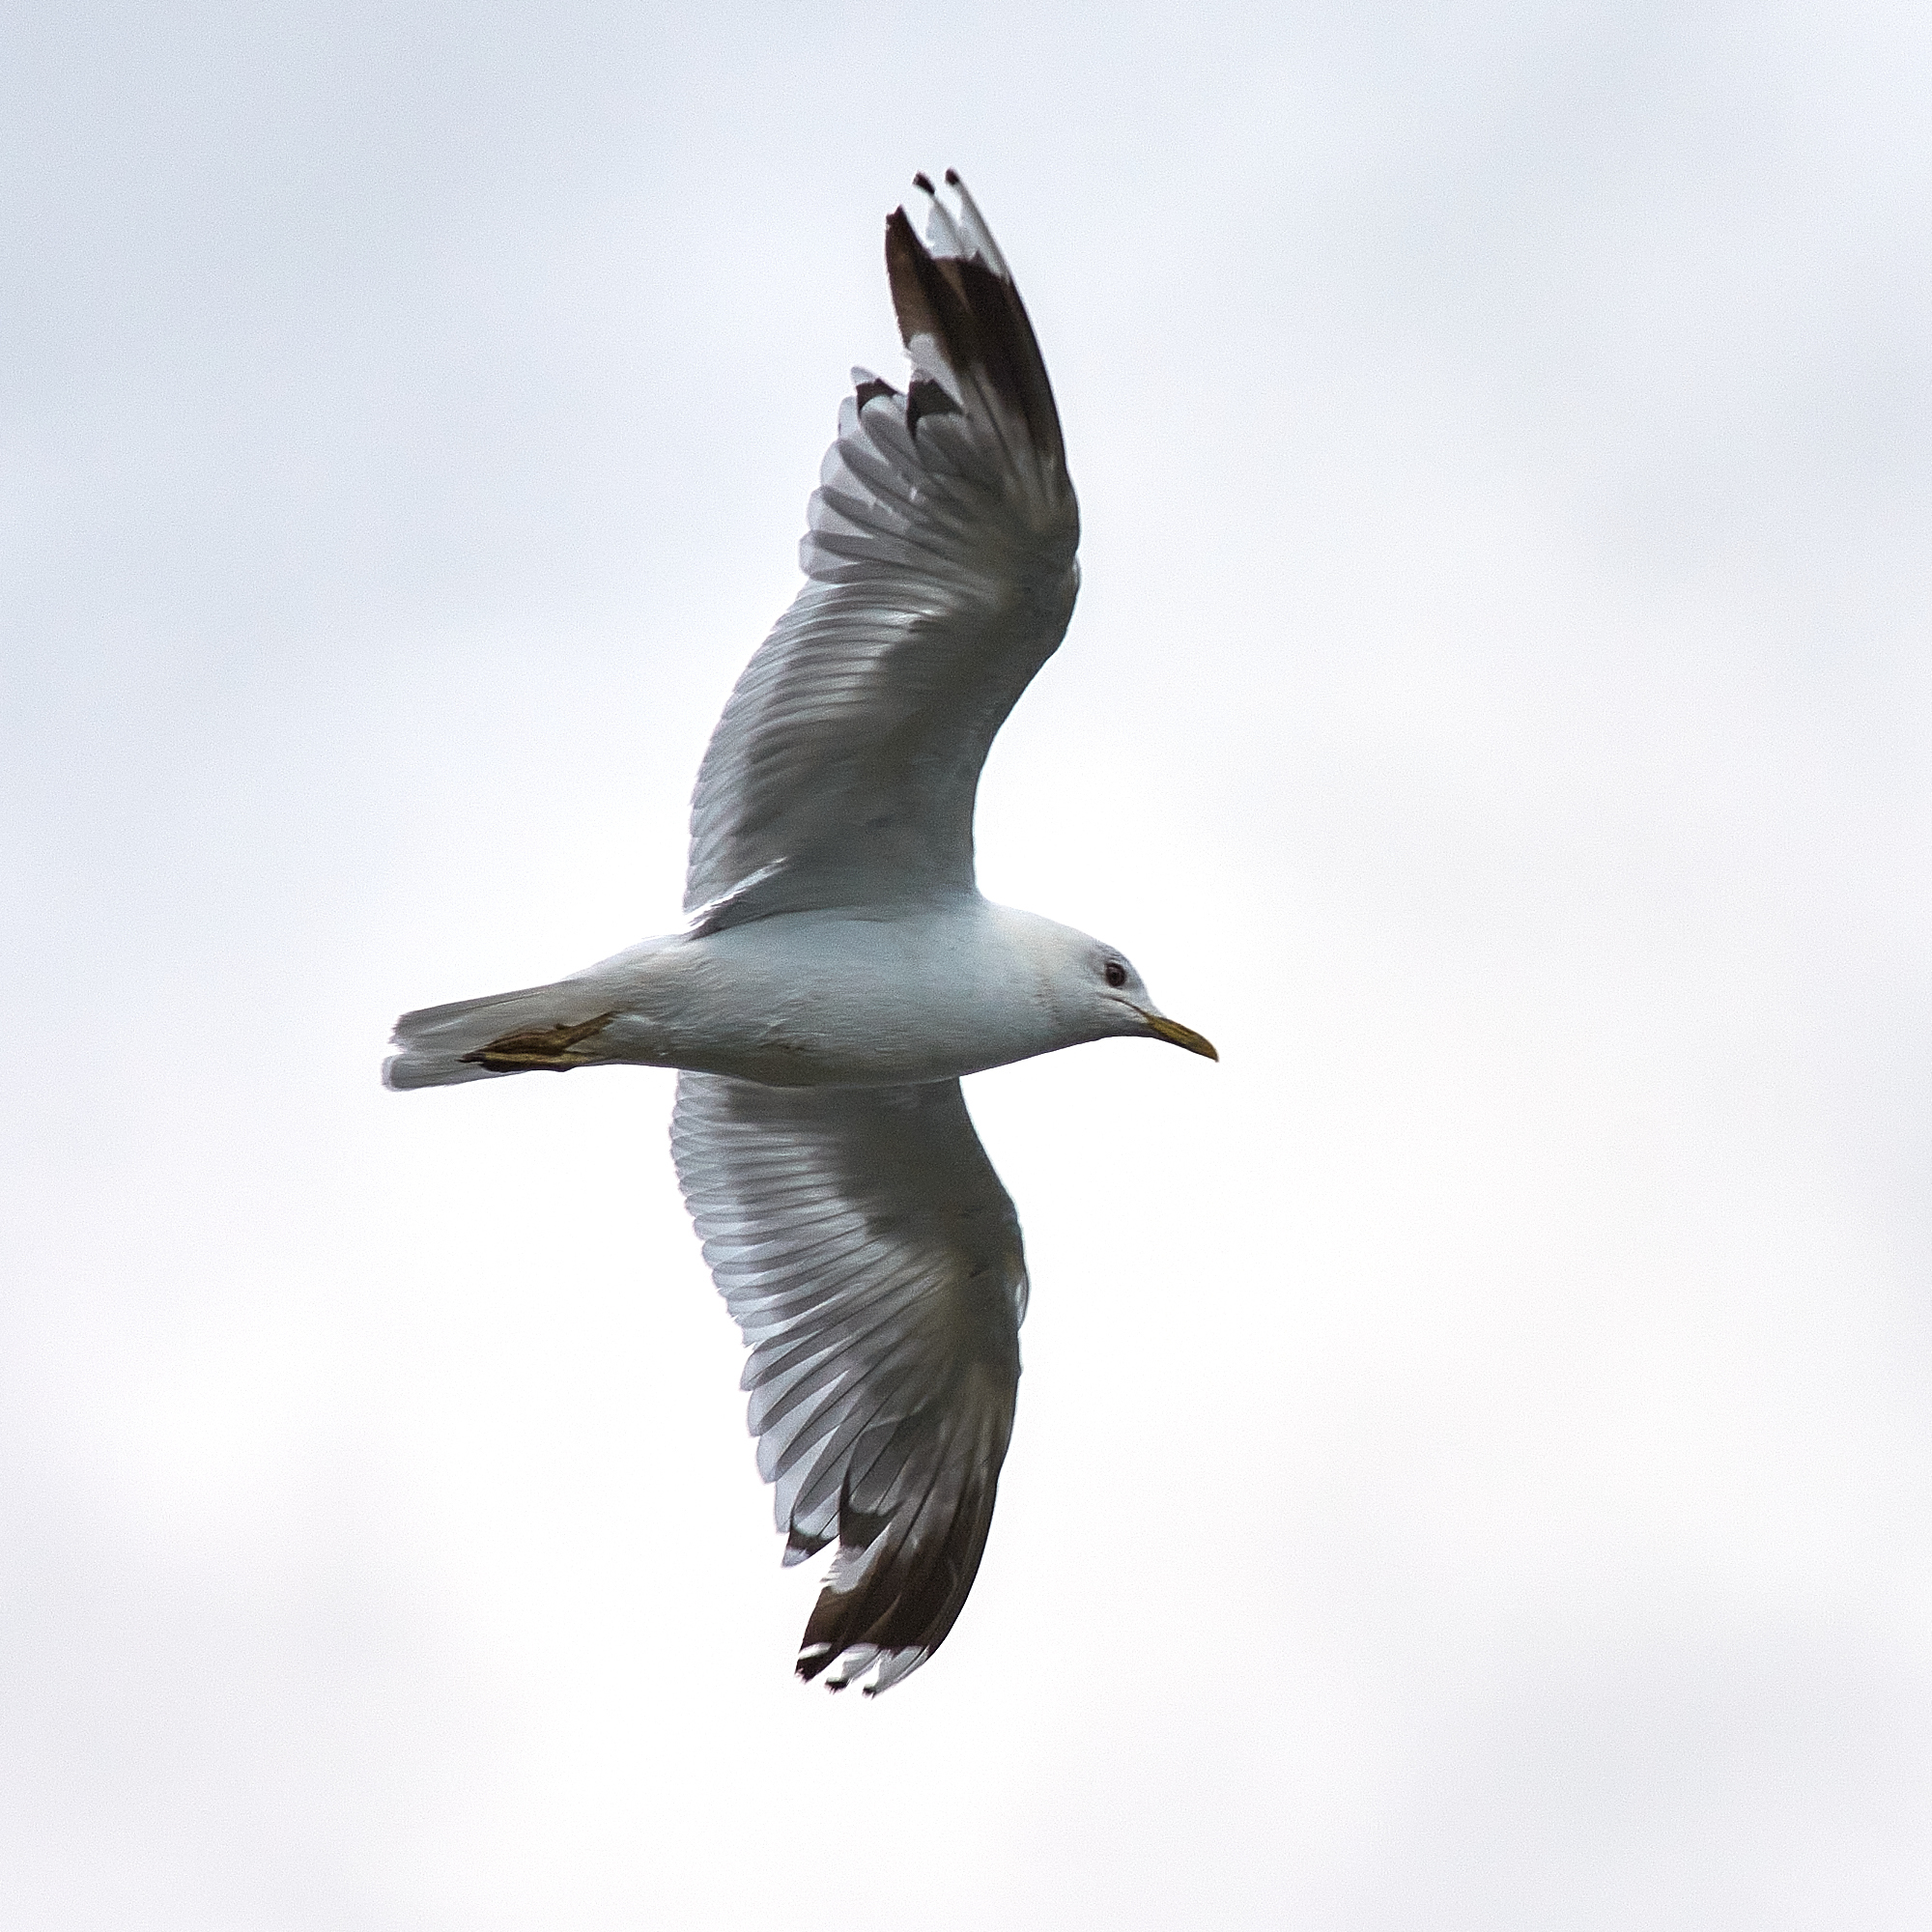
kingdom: Animalia
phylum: Chordata
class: Aves
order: Charadriiformes
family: Laridae
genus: Larus
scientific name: Larus canus
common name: Mew gull
